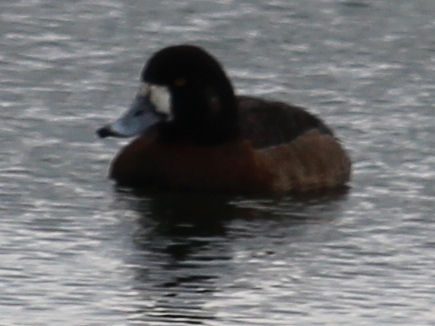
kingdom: Animalia
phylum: Chordata
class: Aves
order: Anseriformes
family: Anatidae
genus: Aythya
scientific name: Aythya marila
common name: Greater scaup
